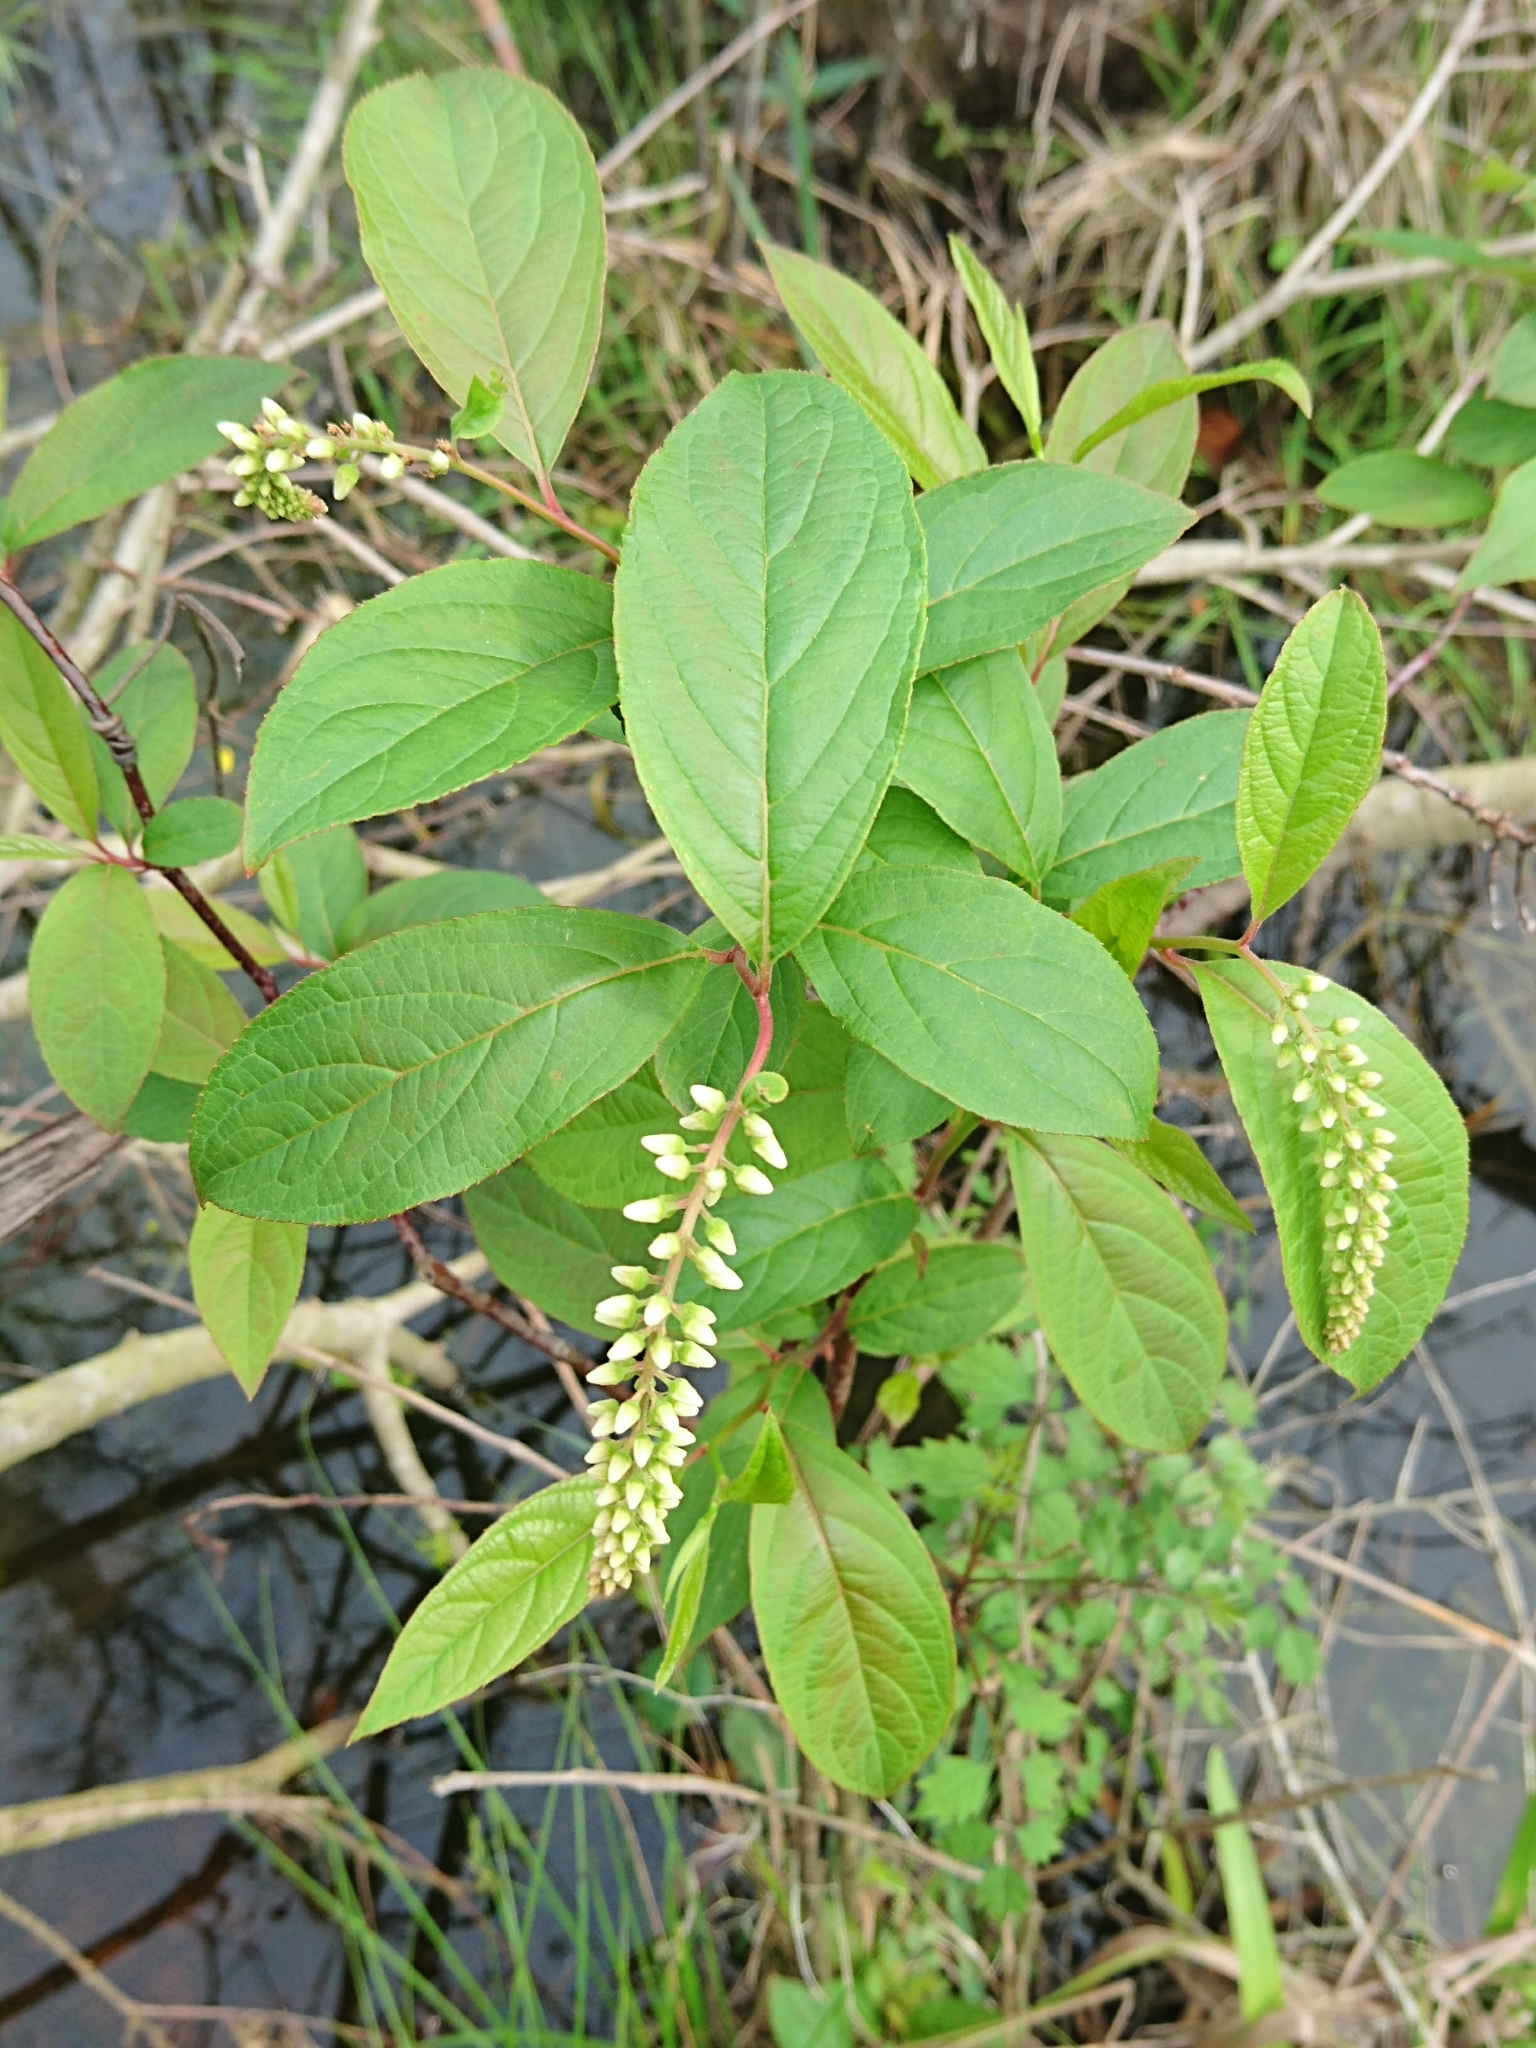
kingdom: Plantae
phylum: Tracheophyta
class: Magnoliopsida
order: Saxifragales
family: Iteaceae
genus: Itea
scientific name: Itea virginica
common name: Sweetspire
